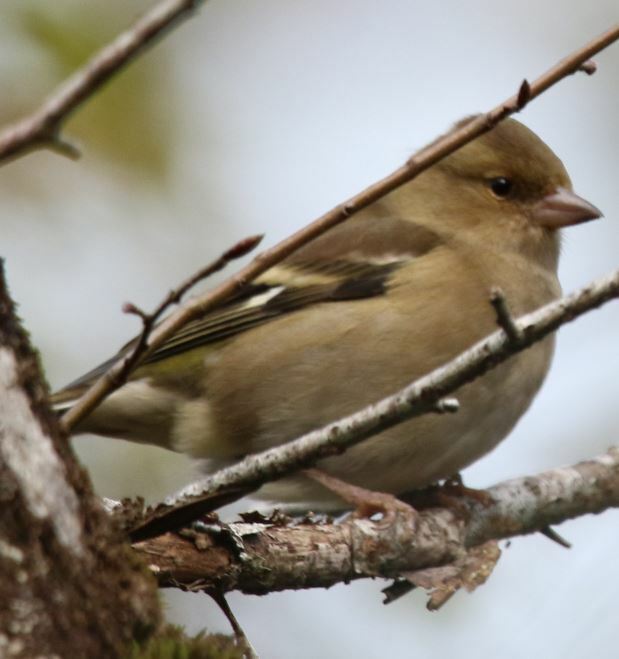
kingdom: Animalia
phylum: Chordata
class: Aves
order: Passeriformes
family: Fringillidae
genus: Fringilla
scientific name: Fringilla coelebs
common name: Common chaffinch
